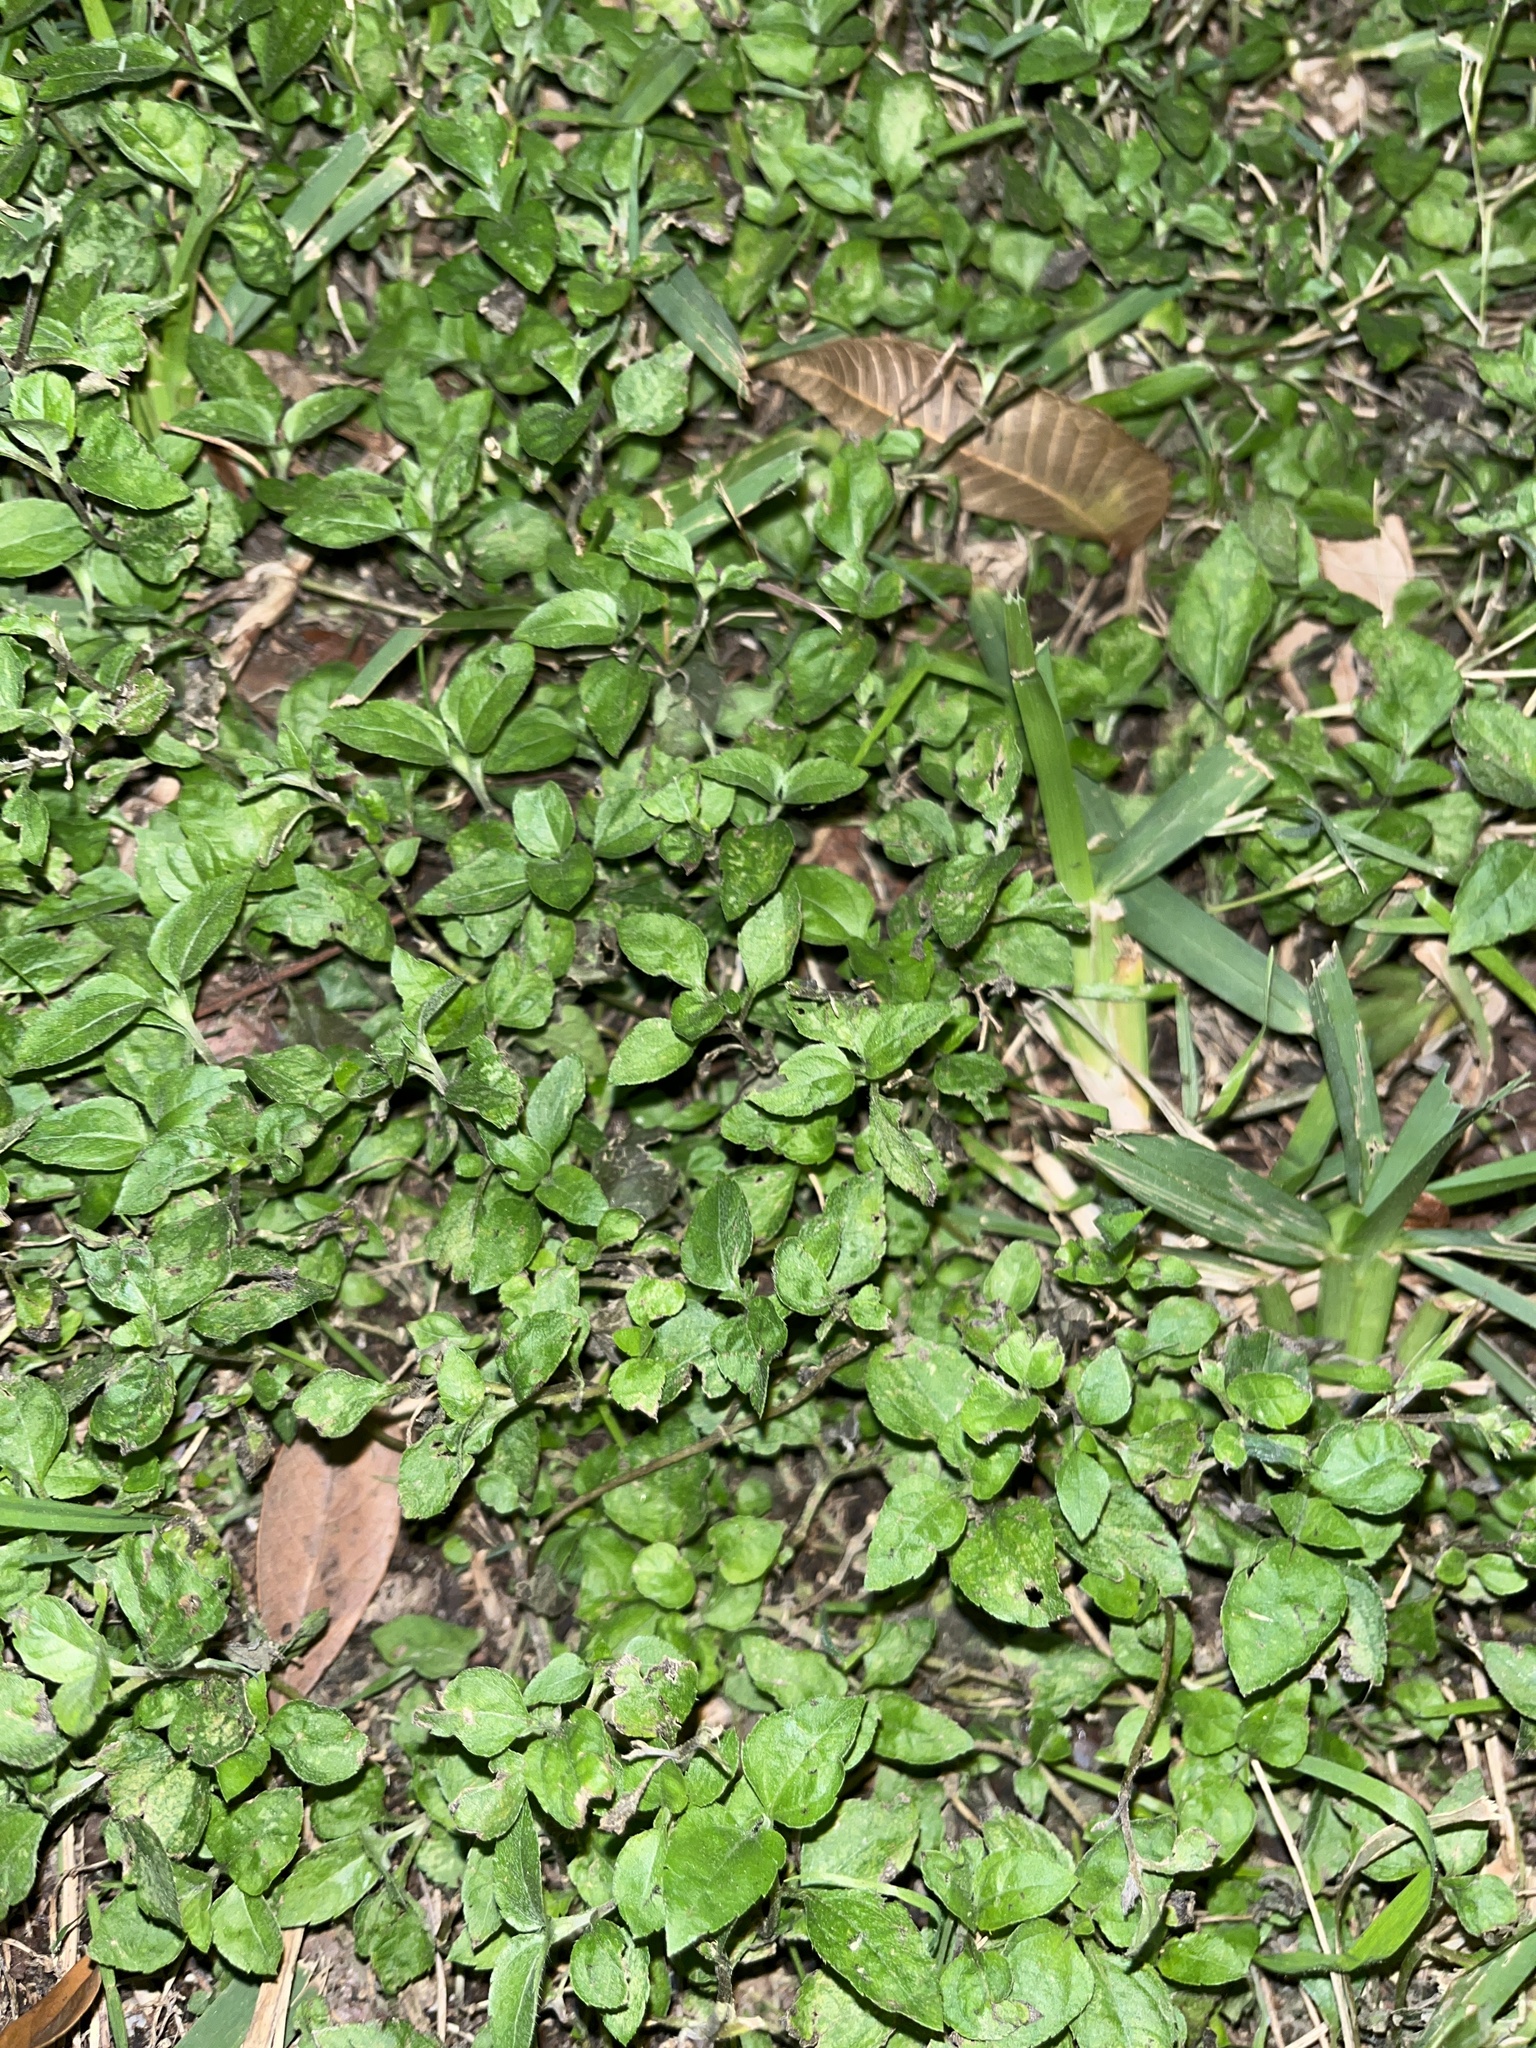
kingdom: Plantae
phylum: Tracheophyta
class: Magnoliopsida
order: Asterales
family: Asteraceae
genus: Calyptocarpus
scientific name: Calyptocarpus vialis
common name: Straggler daisy
